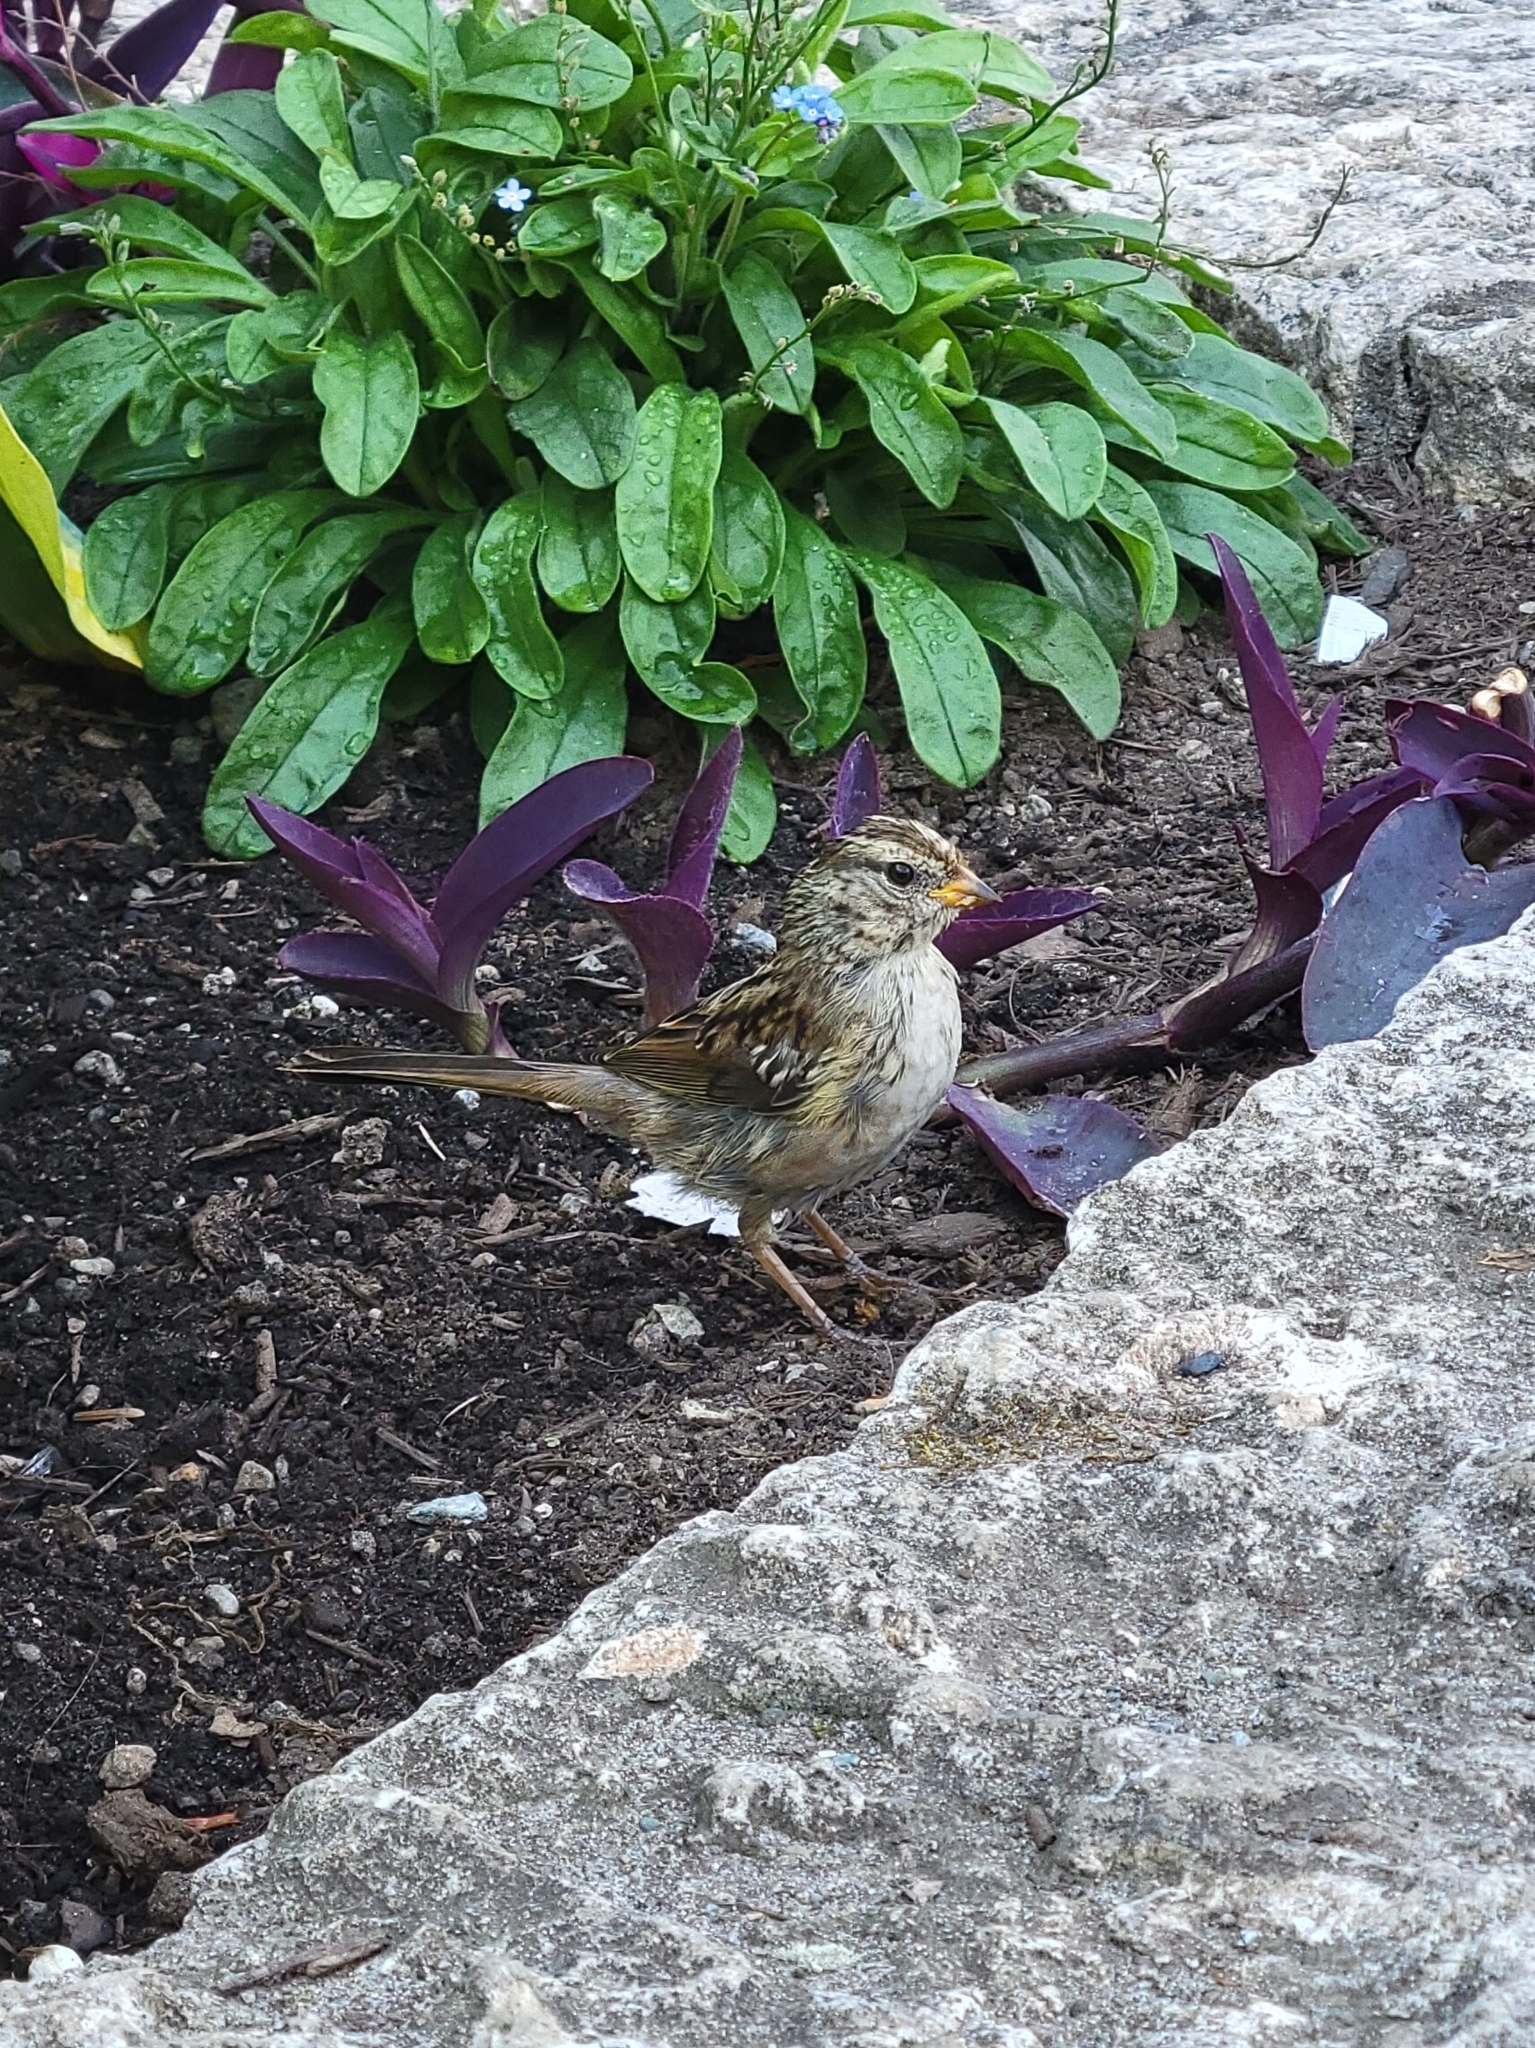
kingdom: Animalia
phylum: Chordata
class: Aves
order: Passeriformes
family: Passerellidae
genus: Zonotrichia
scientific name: Zonotrichia leucophrys
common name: White-crowned sparrow
